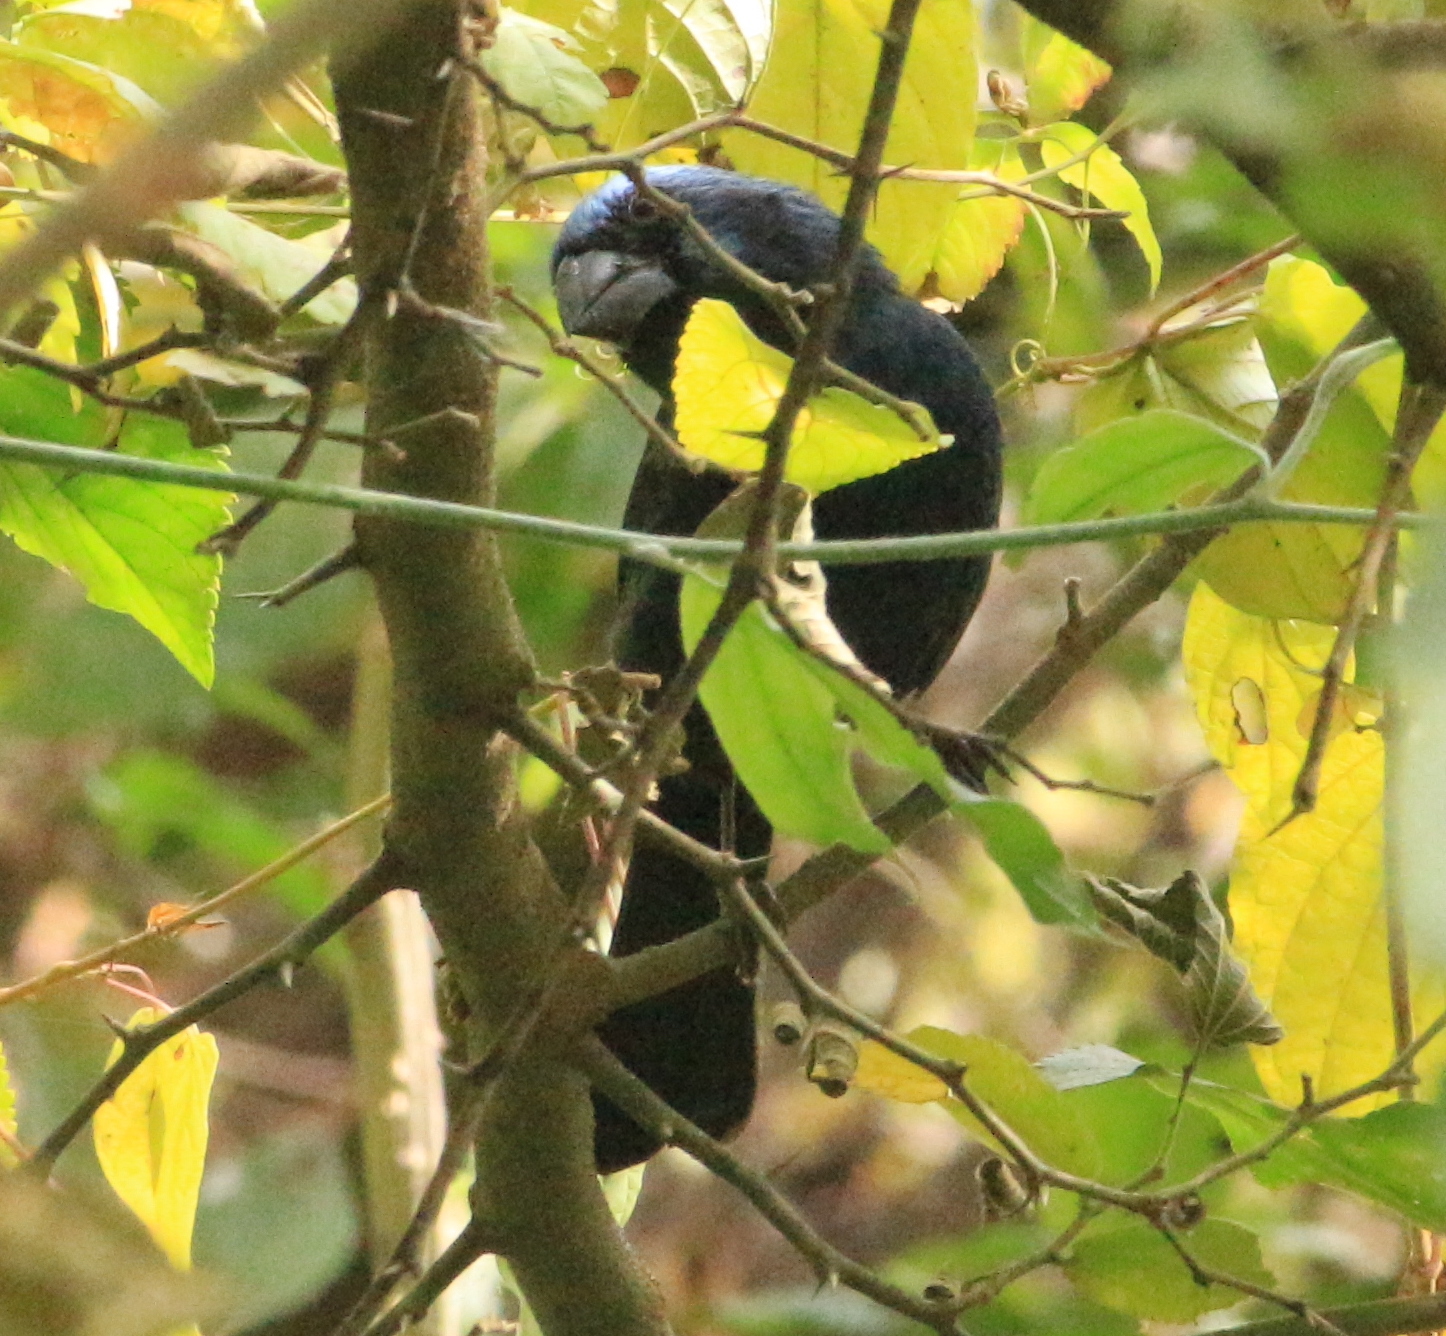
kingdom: Animalia
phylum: Chordata
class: Aves
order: Passeriformes
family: Cardinalidae
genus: Cyanoloxia
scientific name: Cyanoloxia brissonii
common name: Ultramarine grosbeak
